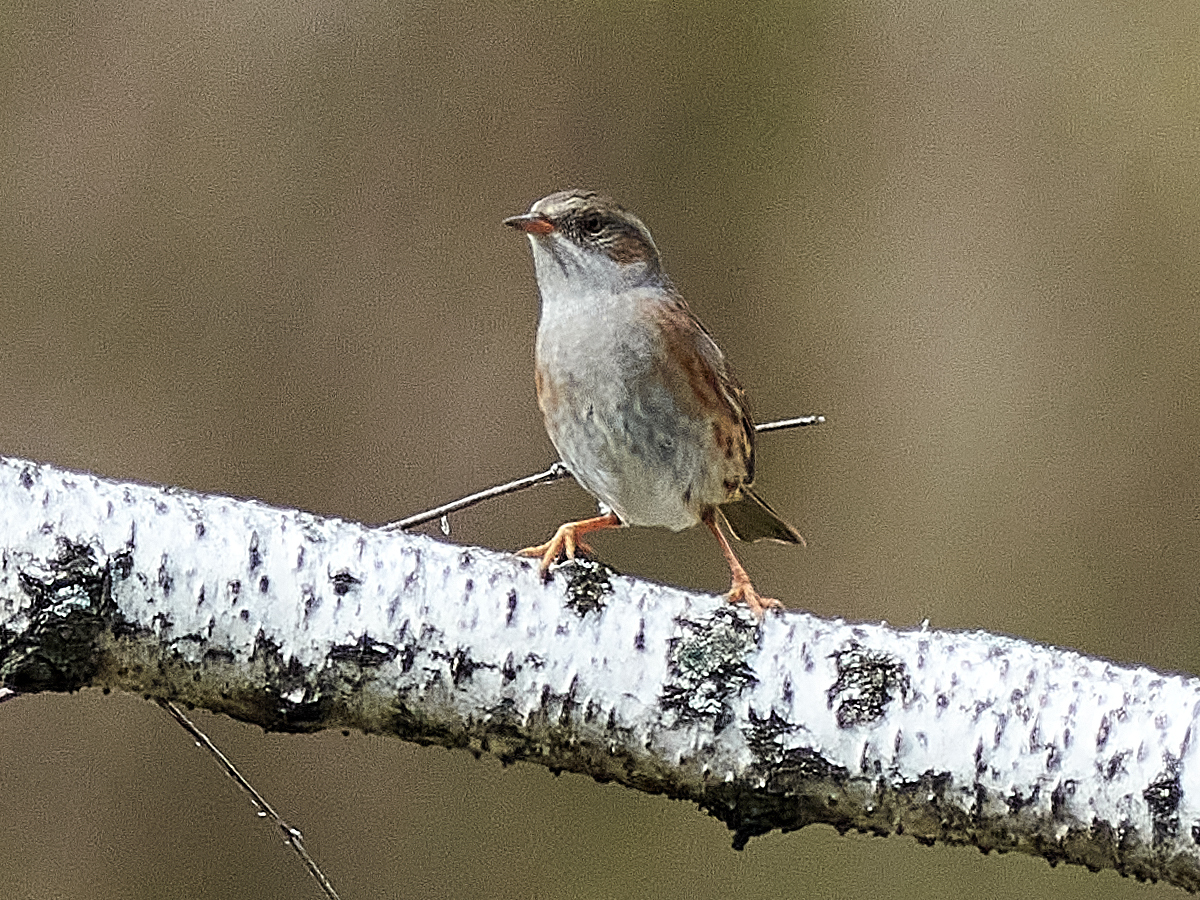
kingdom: Animalia
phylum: Chordata
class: Aves
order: Passeriformes
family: Prunellidae
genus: Prunella
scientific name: Prunella modularis
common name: Dunnock
